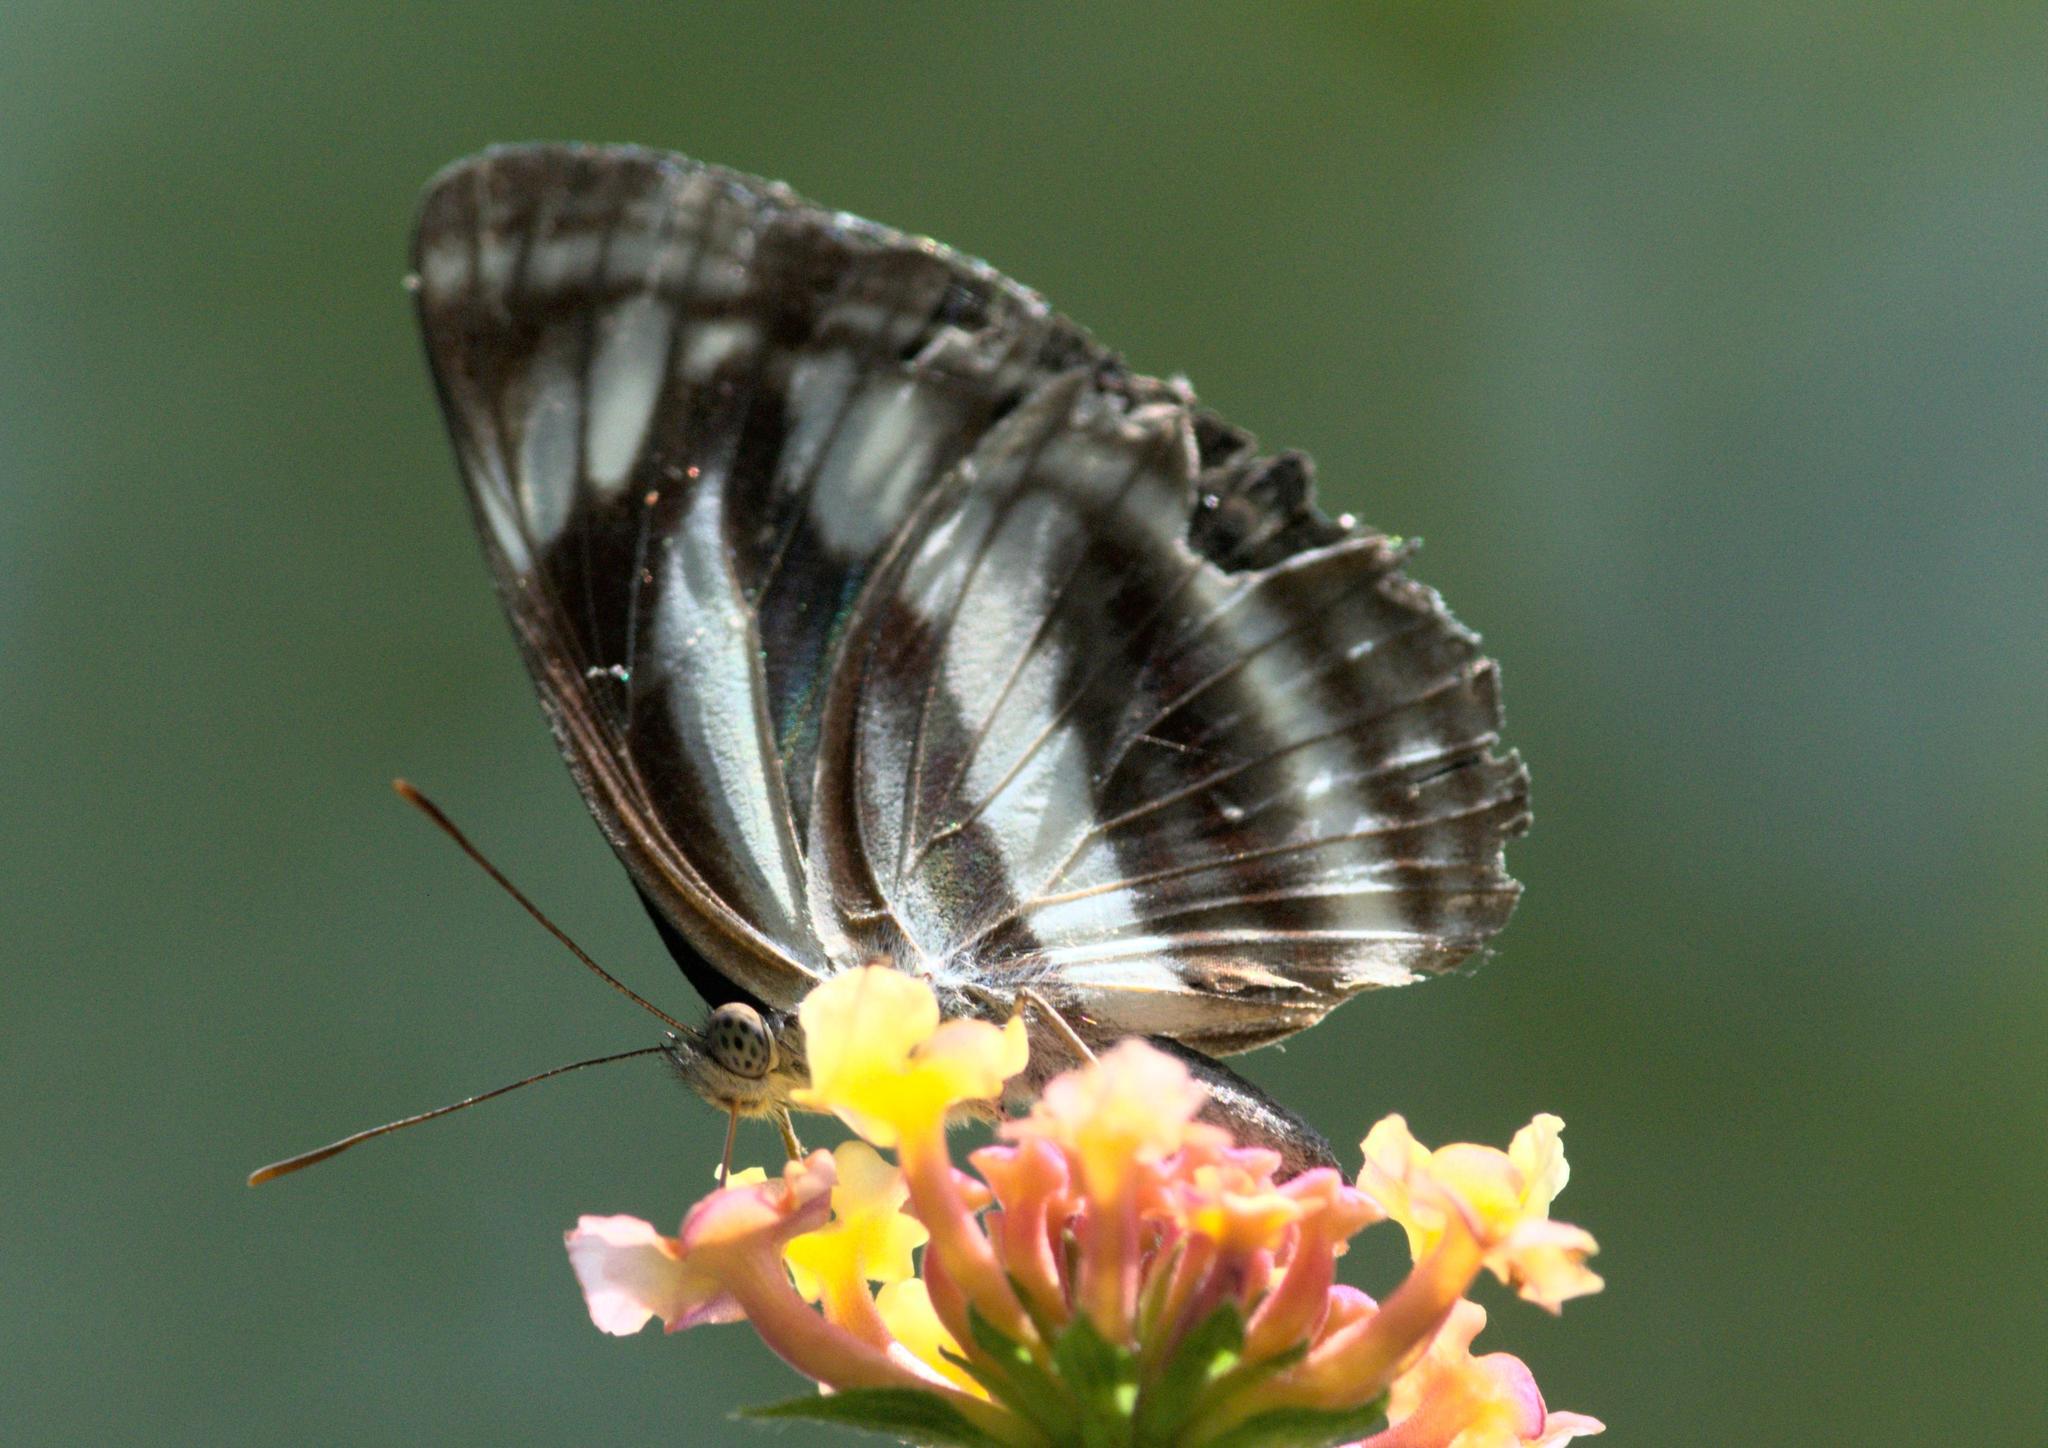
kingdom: Animalia
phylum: Arthropoda
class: Insecta
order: Lepidoptera
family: Nymphalidae
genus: Neptis
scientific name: Neptis sankara
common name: Broad-banded sailer
